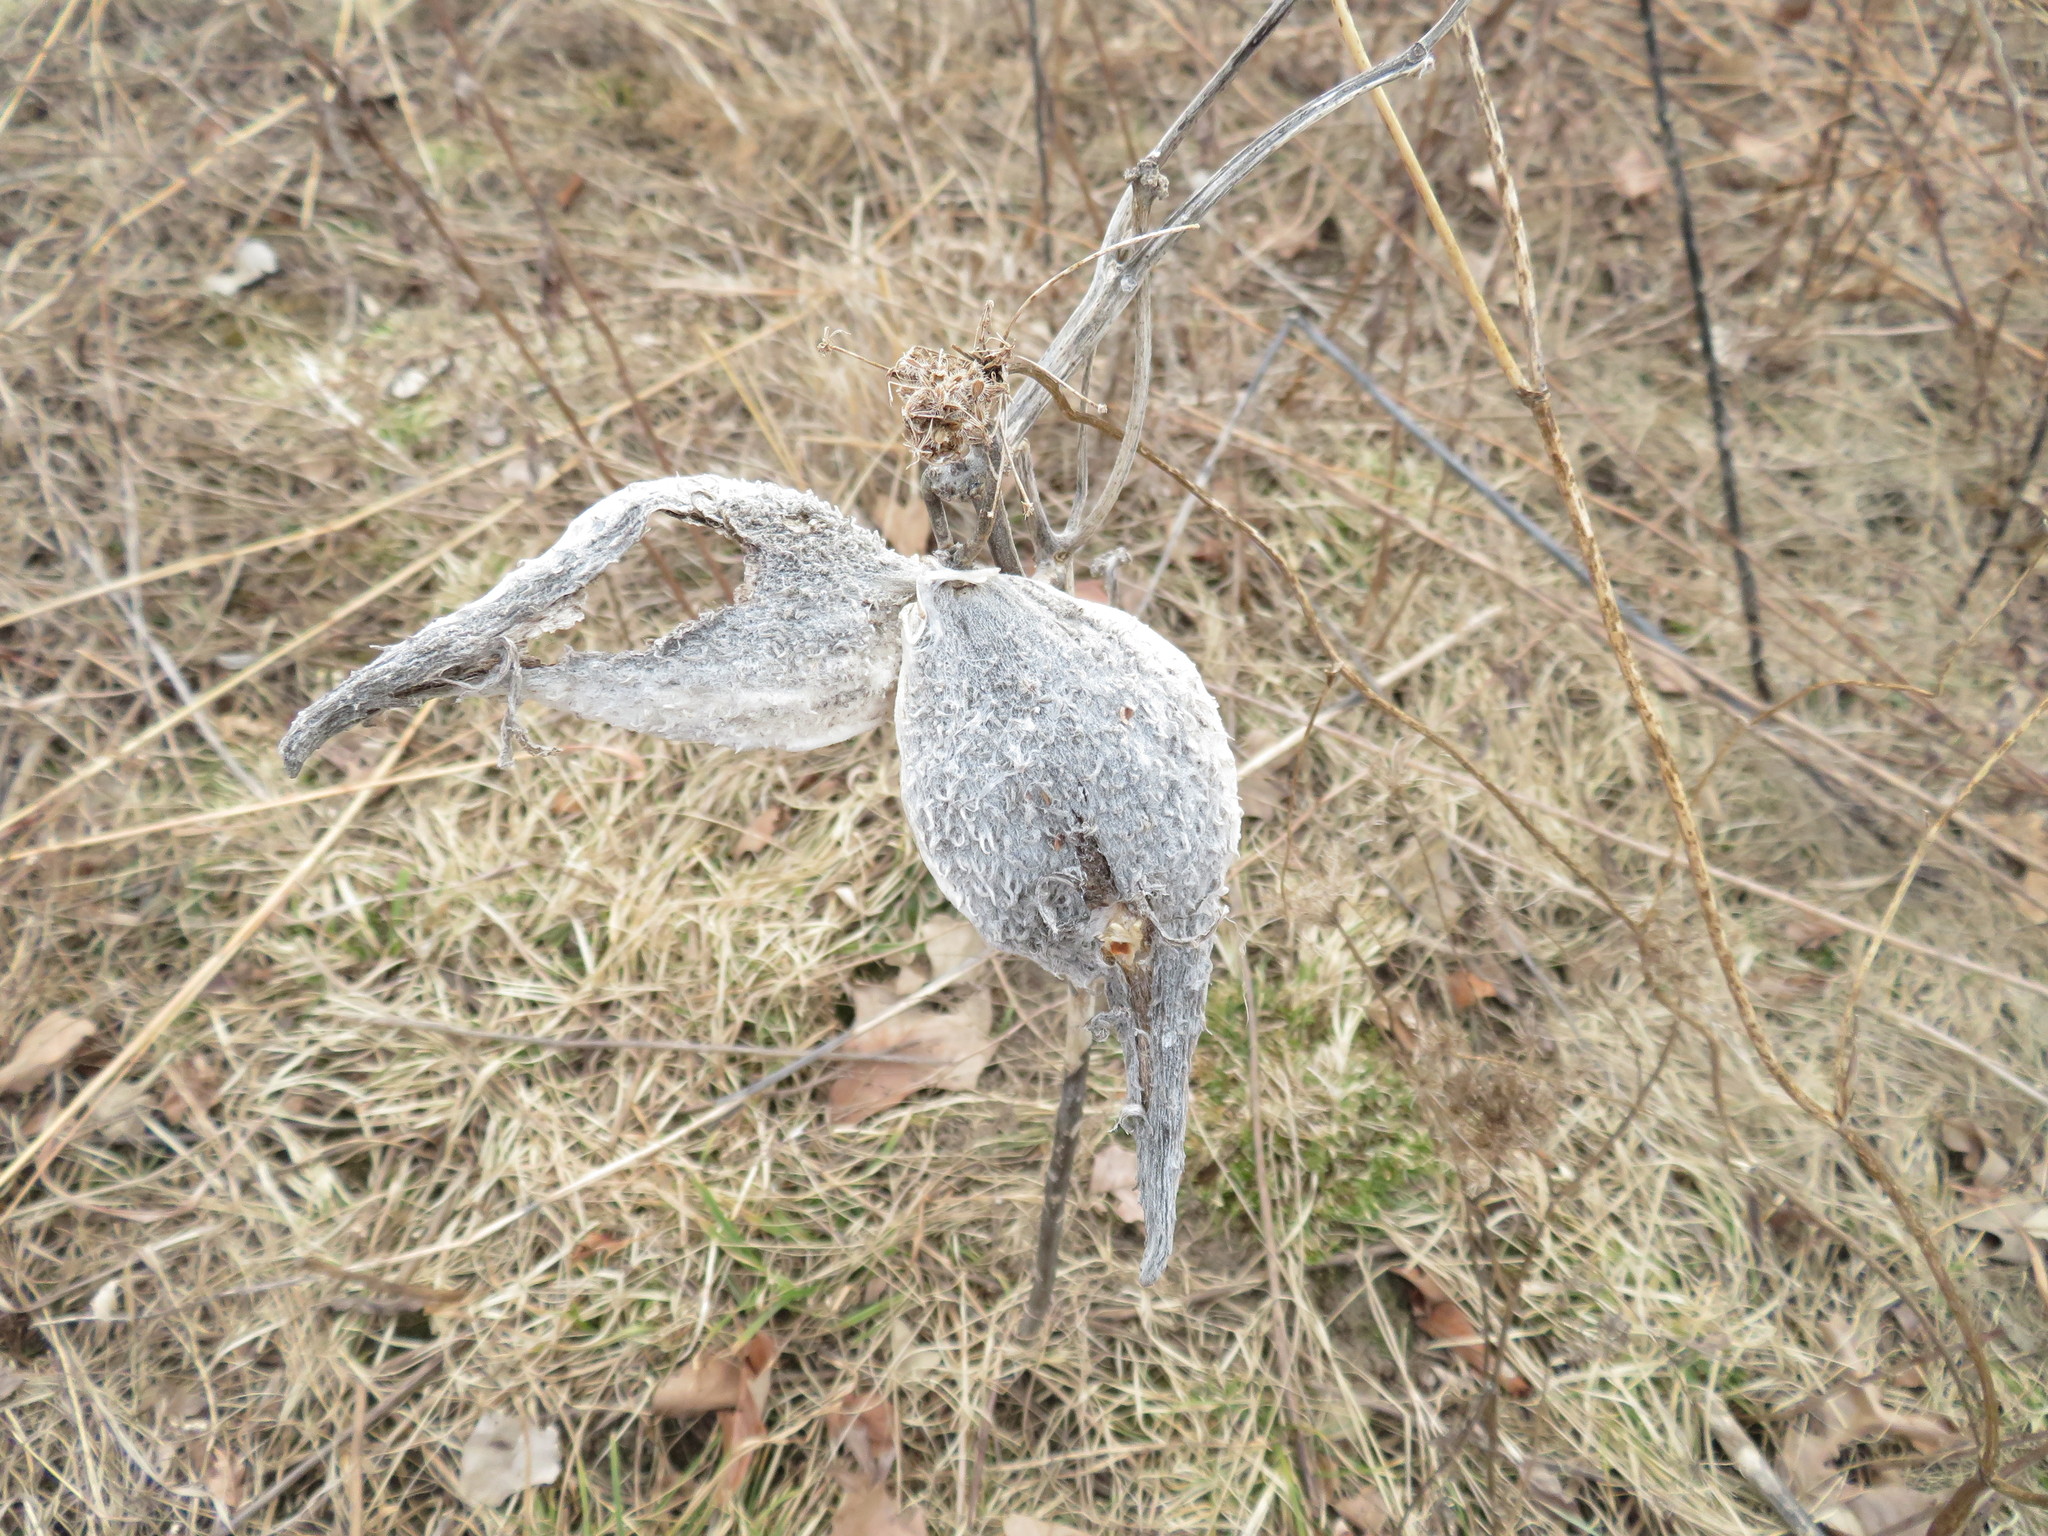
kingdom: Plantae
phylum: Tracheophyta
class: Magnoliopsida
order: Gentianales
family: Apocynaceae
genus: Asclepias
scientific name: Asclepias syriaca
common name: Common milkweed
